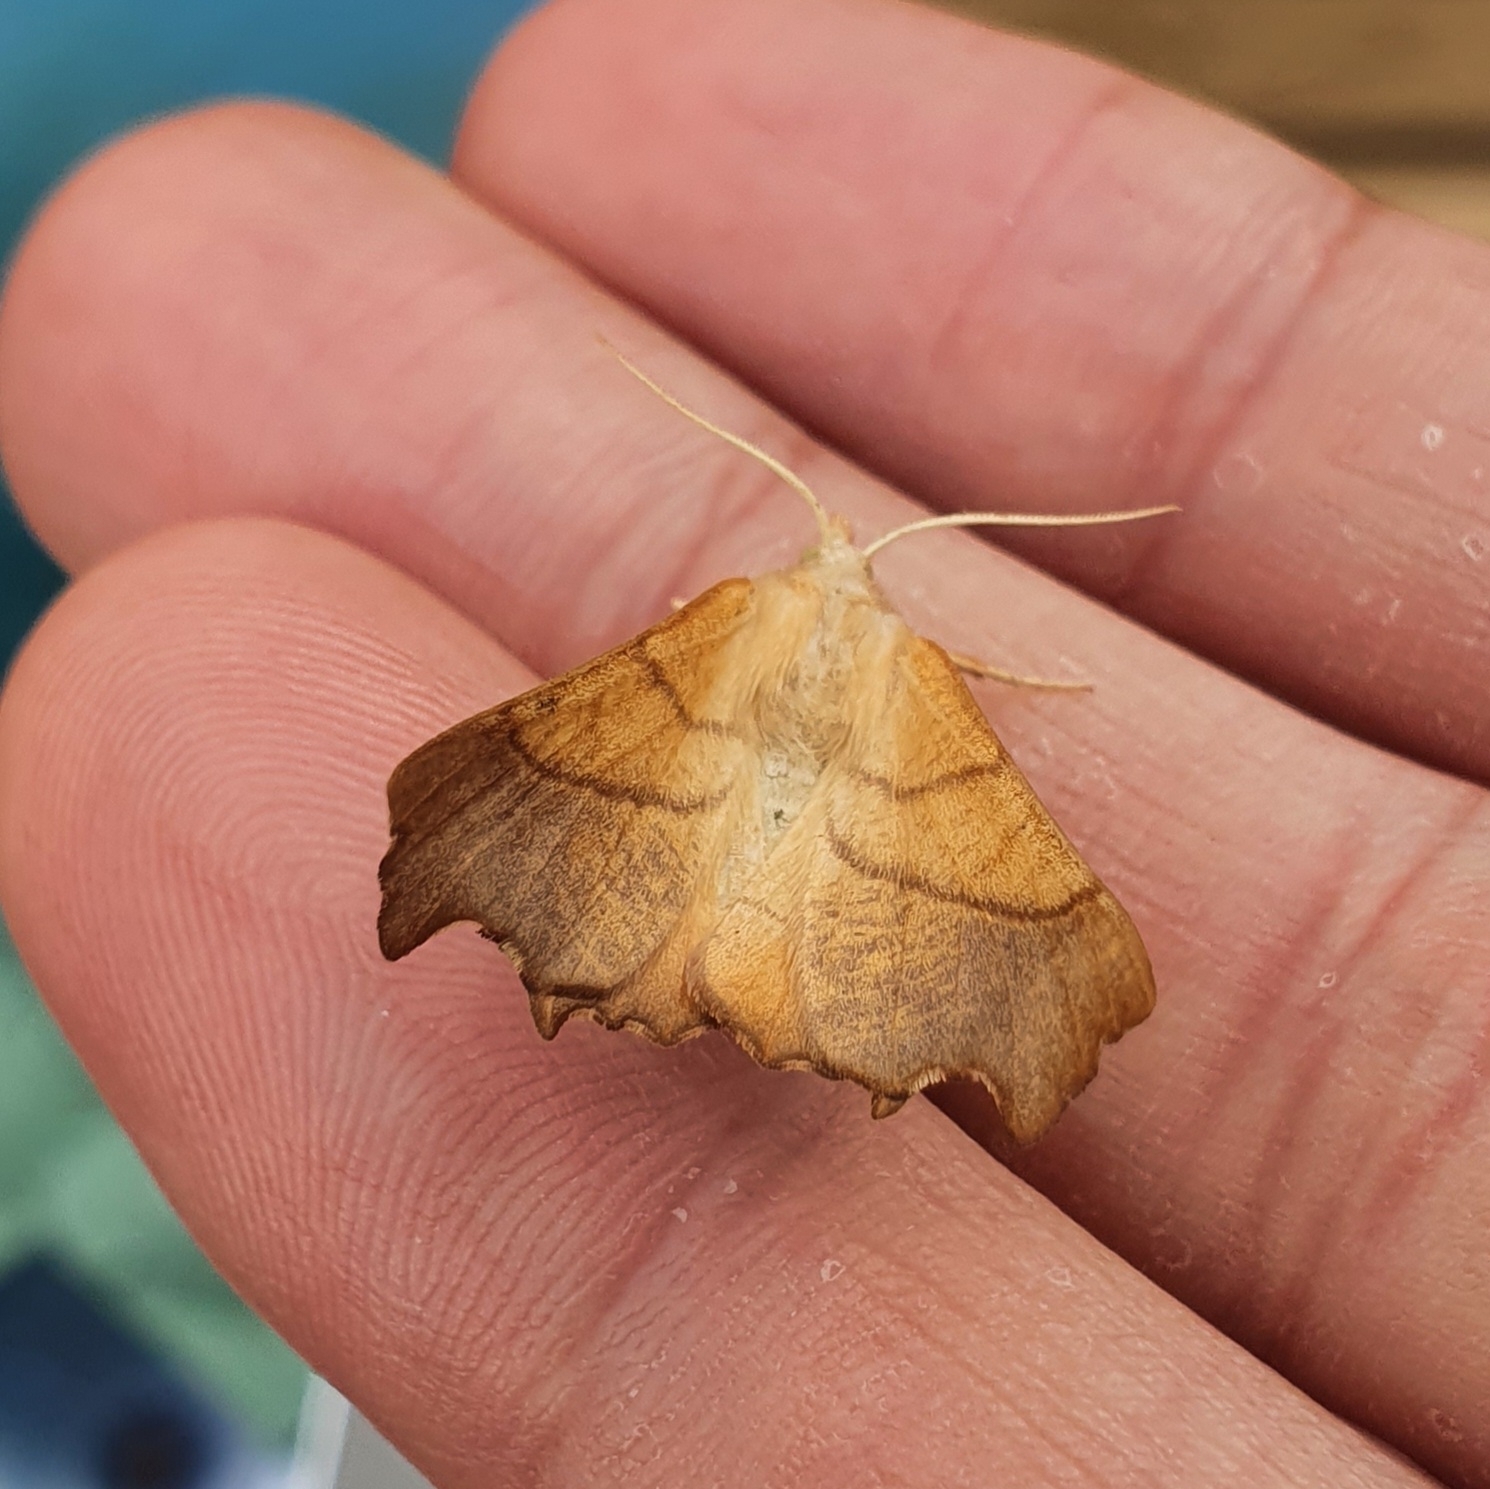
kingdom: Animalia
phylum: Arthropoda
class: Insecta
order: Lepidoptera
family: Geometridae
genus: Ennomos
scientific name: Ennomos fuscantaria
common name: Dusky thorn
